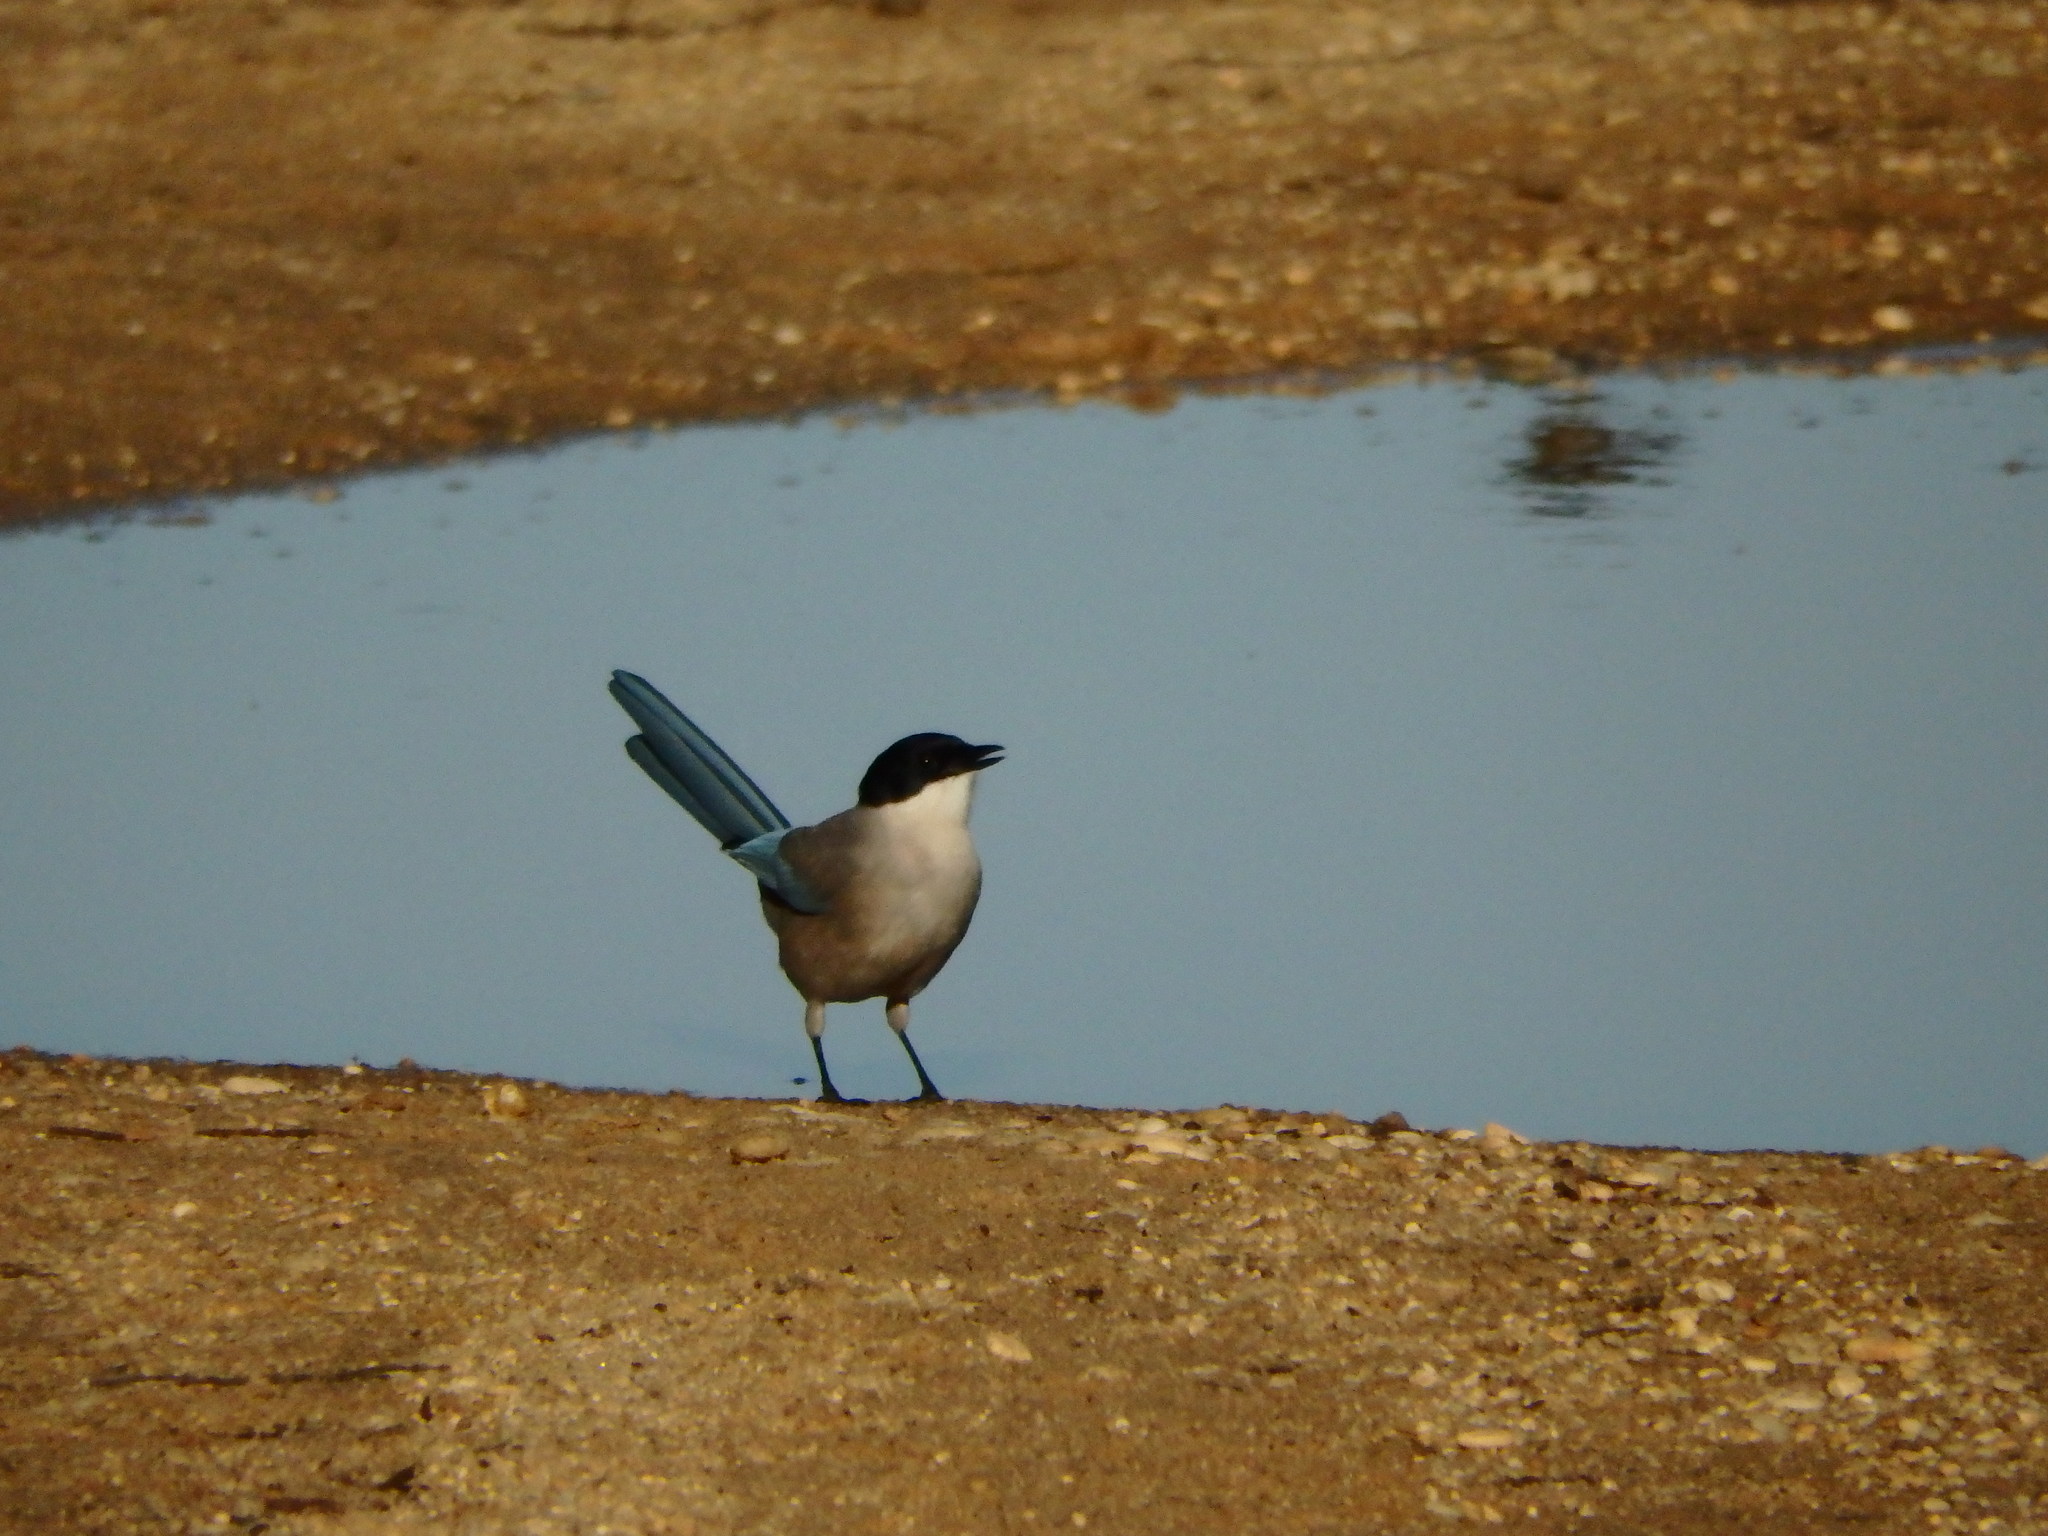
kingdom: Animalia
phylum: Chordata
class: Aves
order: Passeriformes
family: Corvidae
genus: Cyanopica
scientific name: Cyanopica cooki
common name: Iberian magpie
